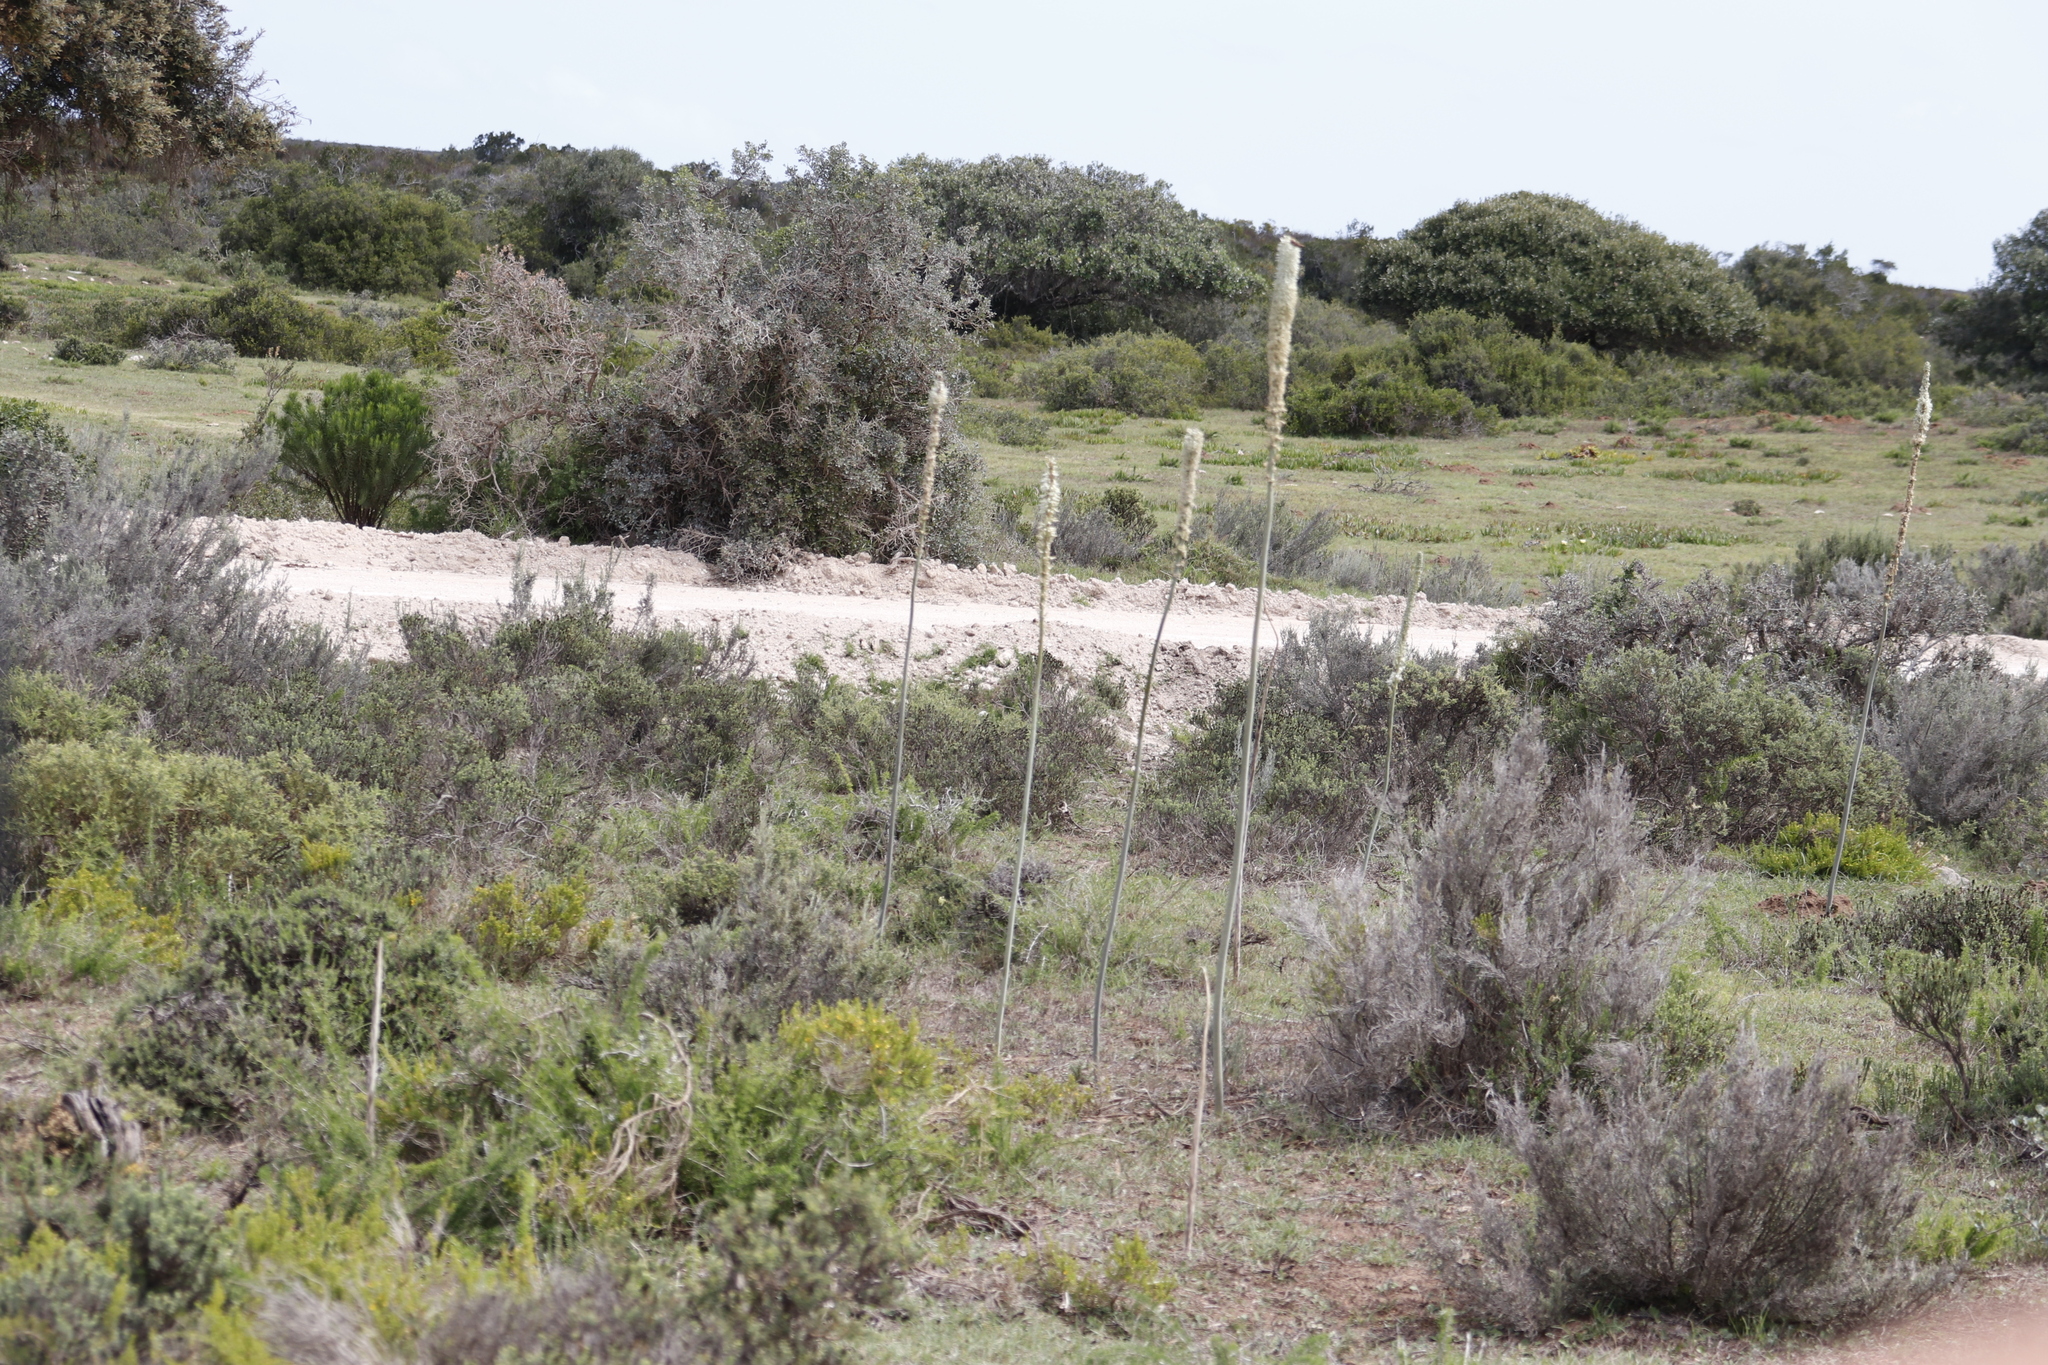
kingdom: Plantae
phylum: Tracheophyta
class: Liliopsida
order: Asparagales
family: Asparagaceae
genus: Drimia
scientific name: Drimia capensis
